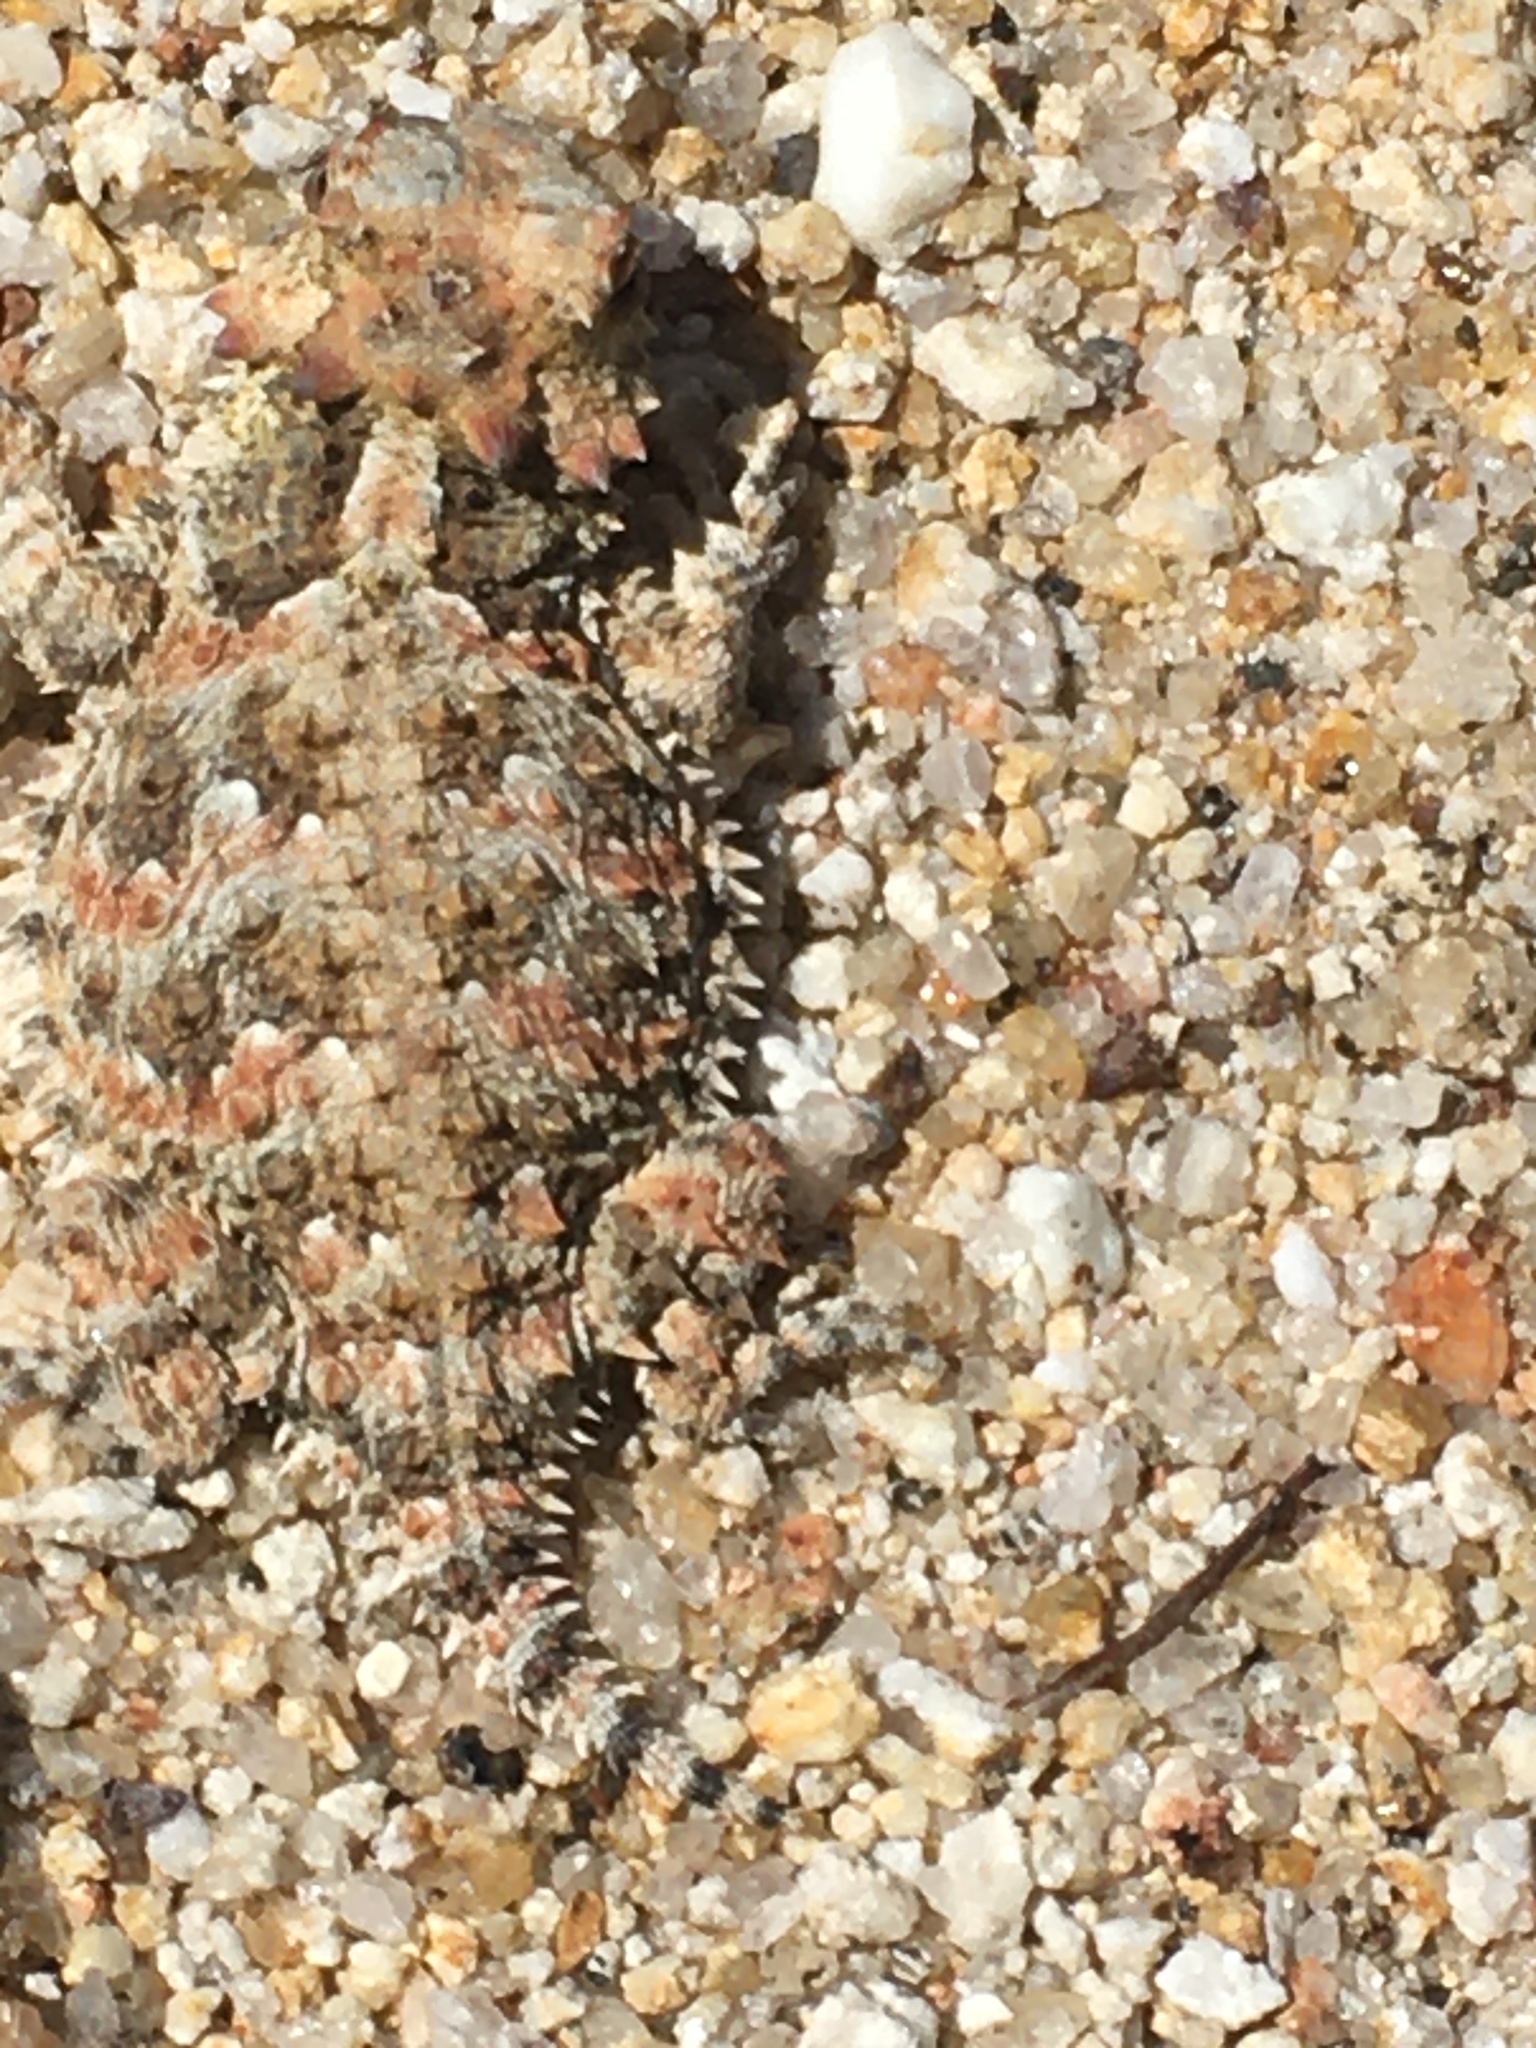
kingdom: Animalia
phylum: Chordata
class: Squamata
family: Phrynosomatidae
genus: Phrynosoma
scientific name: Phrynosoma blainvillii
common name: San diego horned lizard
